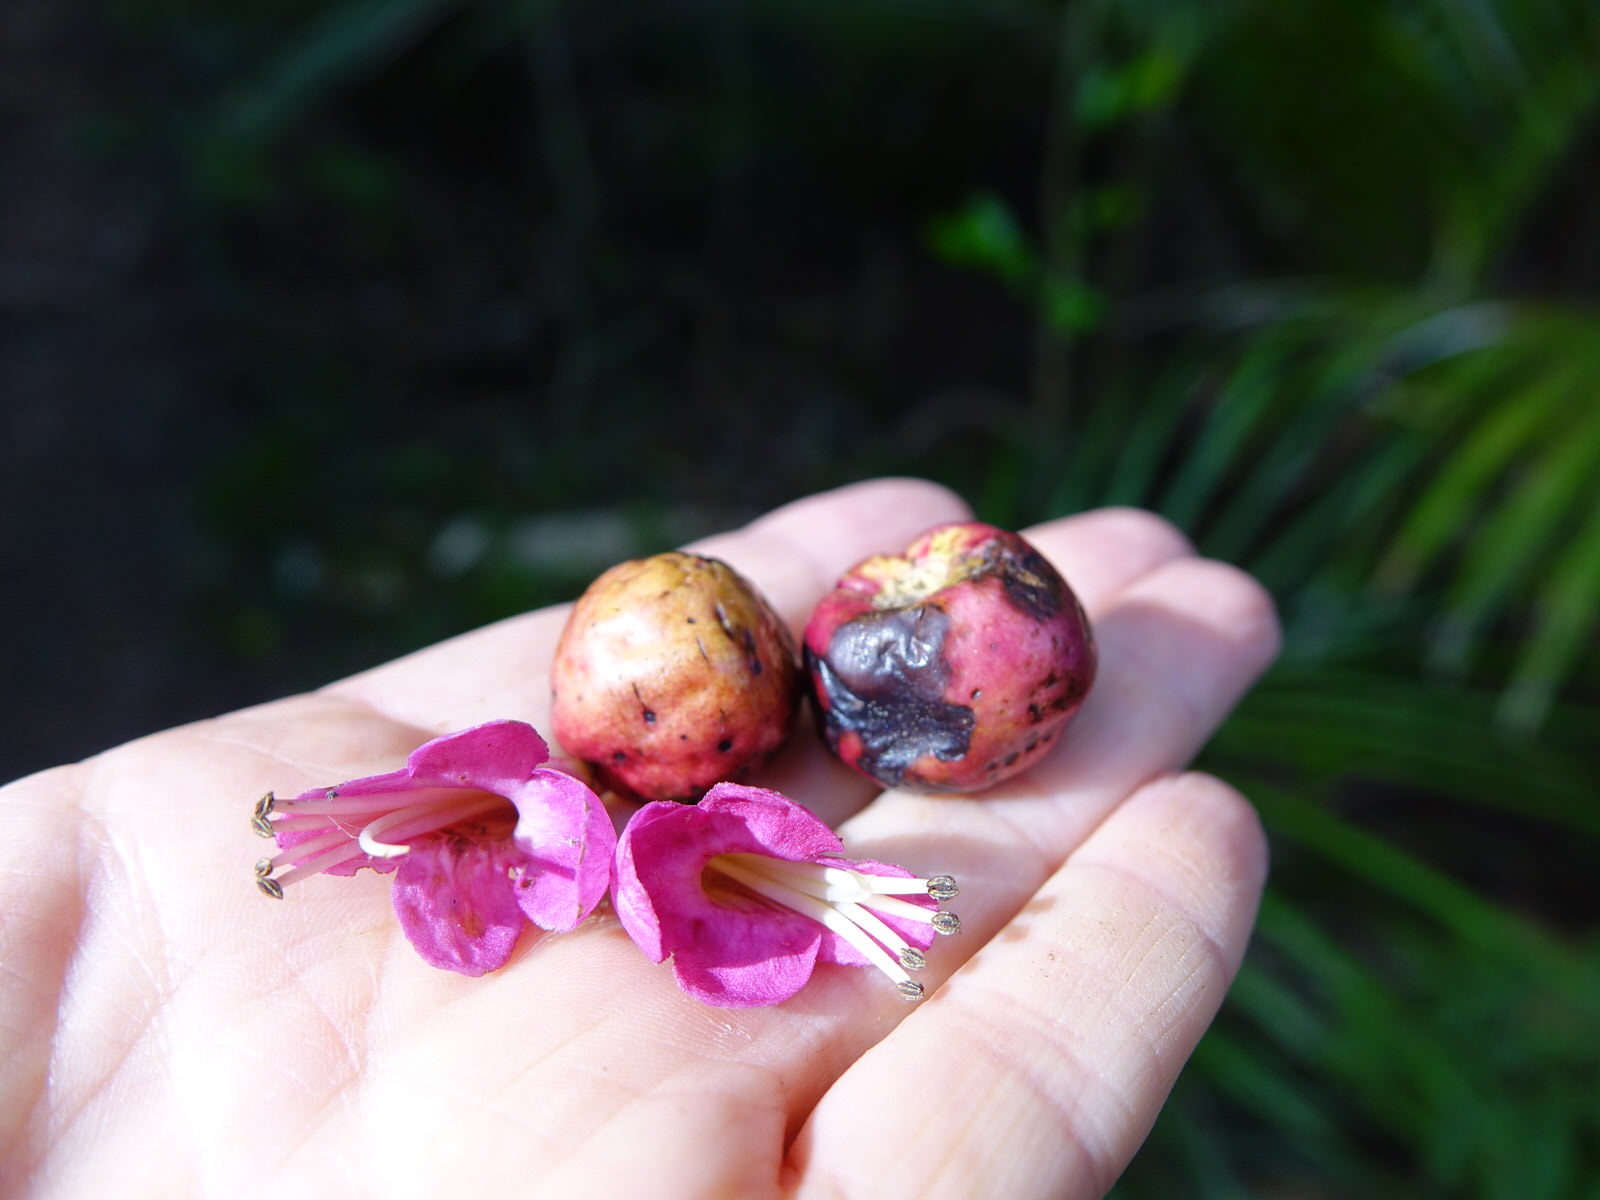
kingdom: Plantae
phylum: Tracheophyta
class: Magnoliopsida
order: Lamiales
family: Lamiaceae
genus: Vitex
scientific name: Vitex lucens
